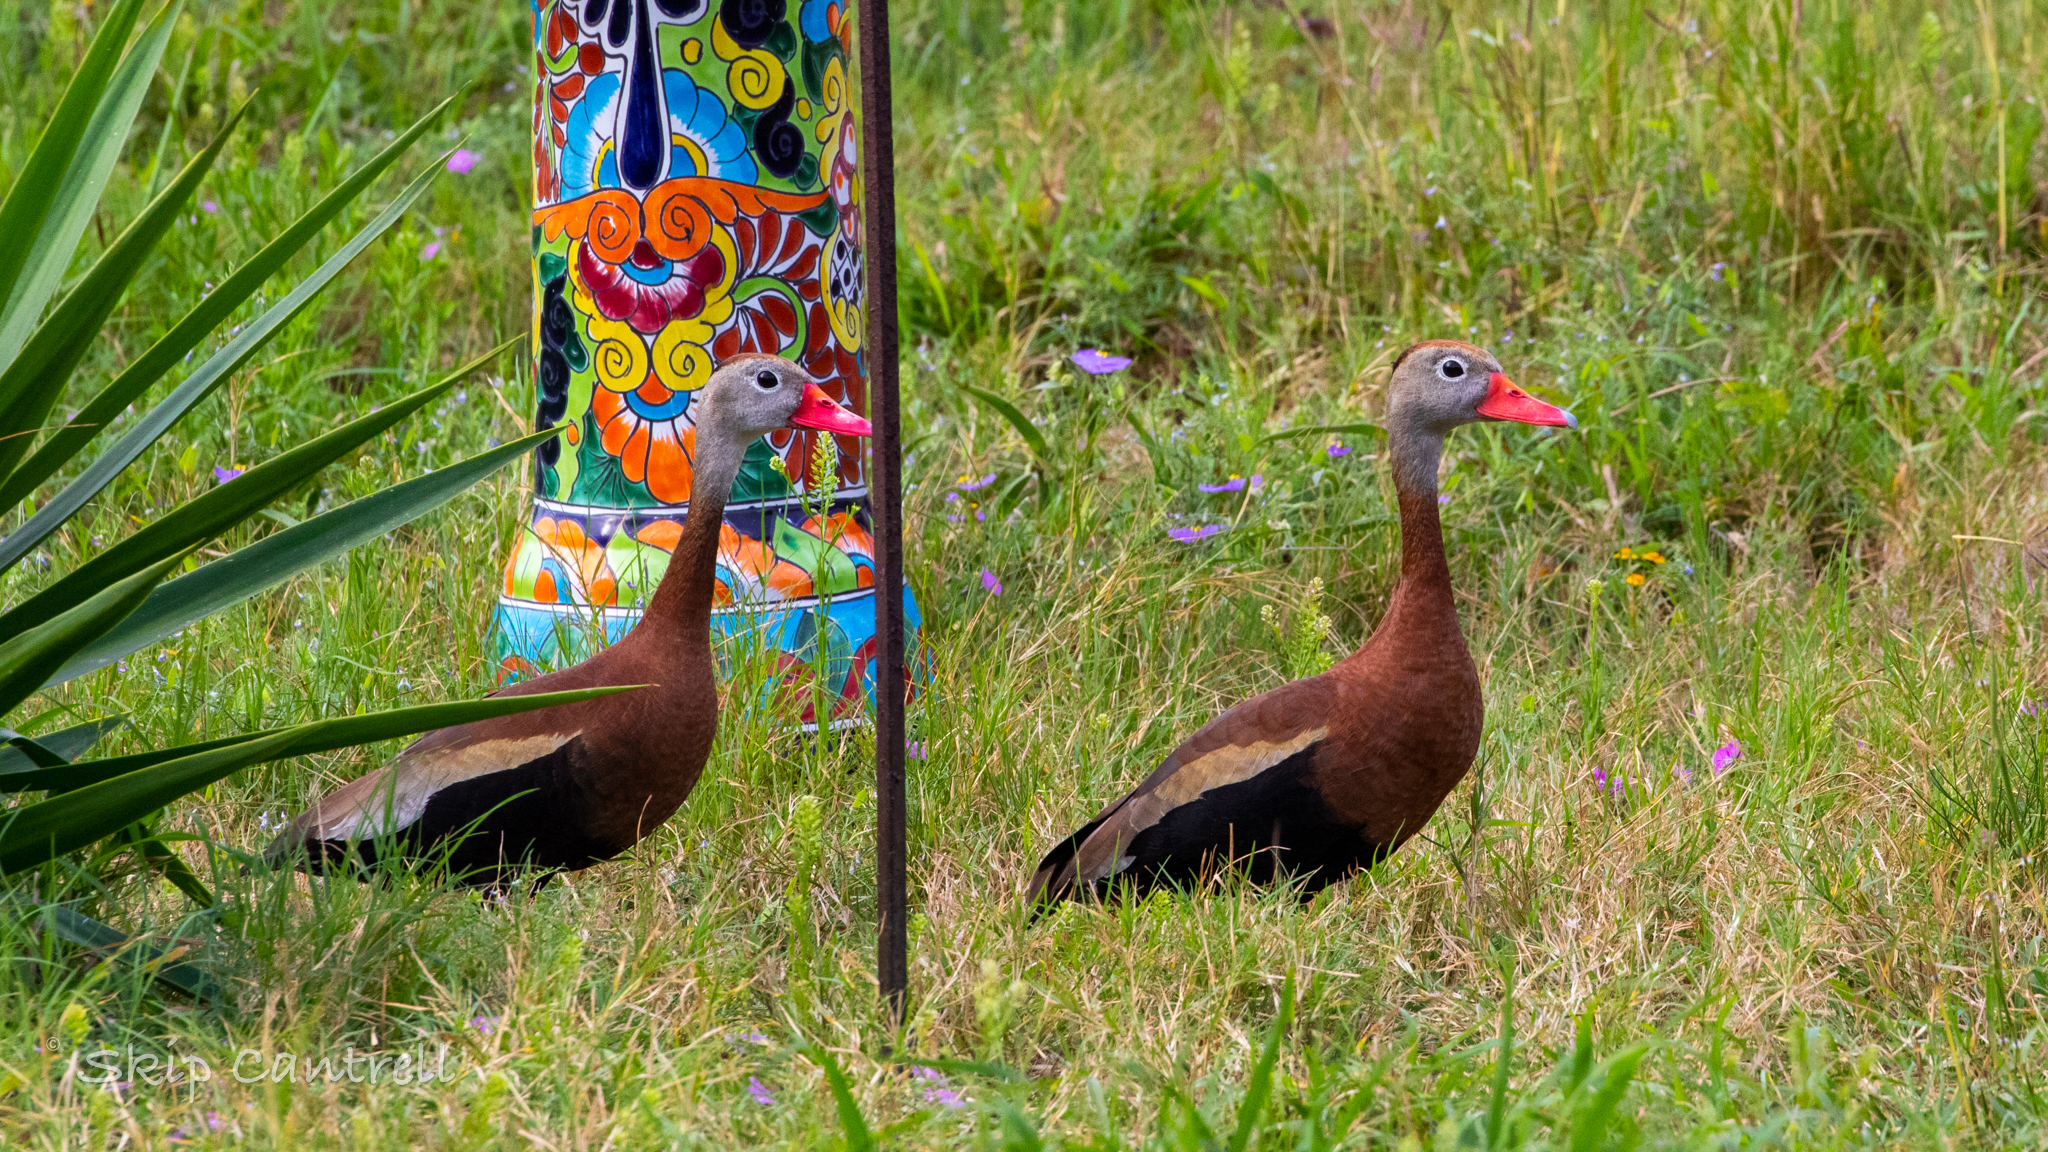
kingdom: Animalia
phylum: Chordata
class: Aves
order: Anseriformes
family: Anatidae
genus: Dendrocygna
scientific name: Dendrocygna autumnalis
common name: Black-bellied whistling duck
